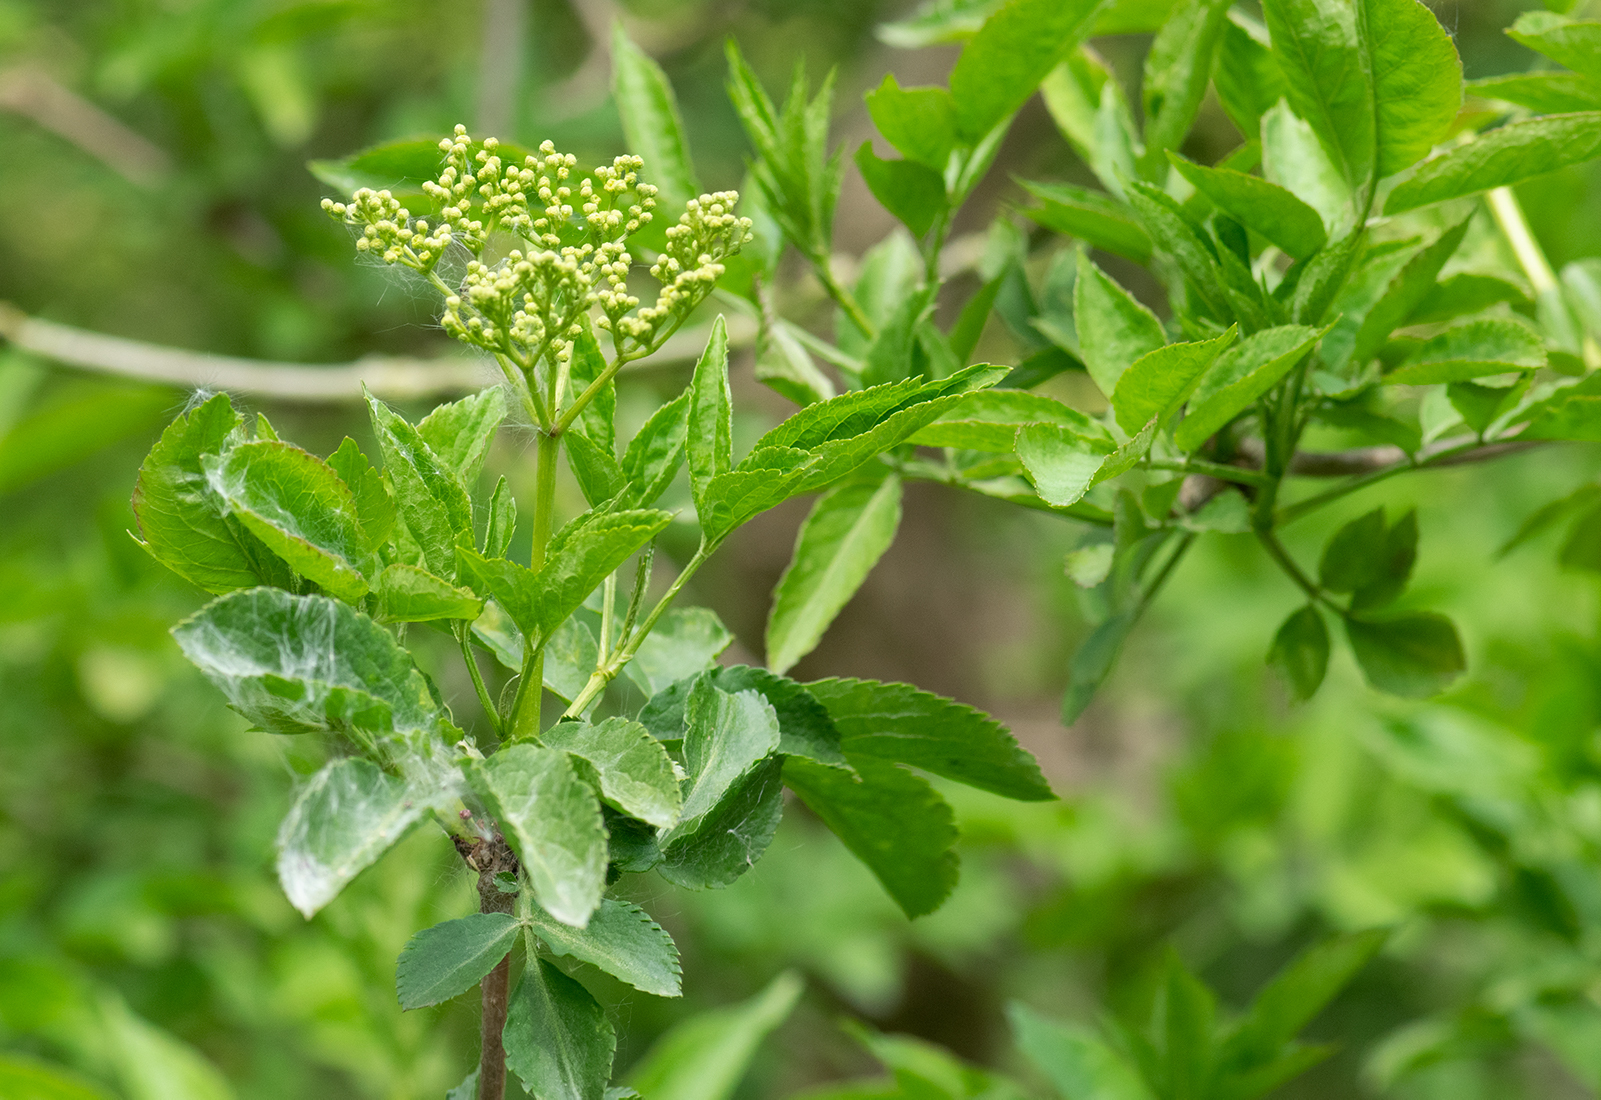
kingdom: Plantae
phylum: Tracheophyta
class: Magnoliopsida
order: Dipsacales
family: Viburnaceae
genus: Sambucus
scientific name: Sambucus nigra
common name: Elder
